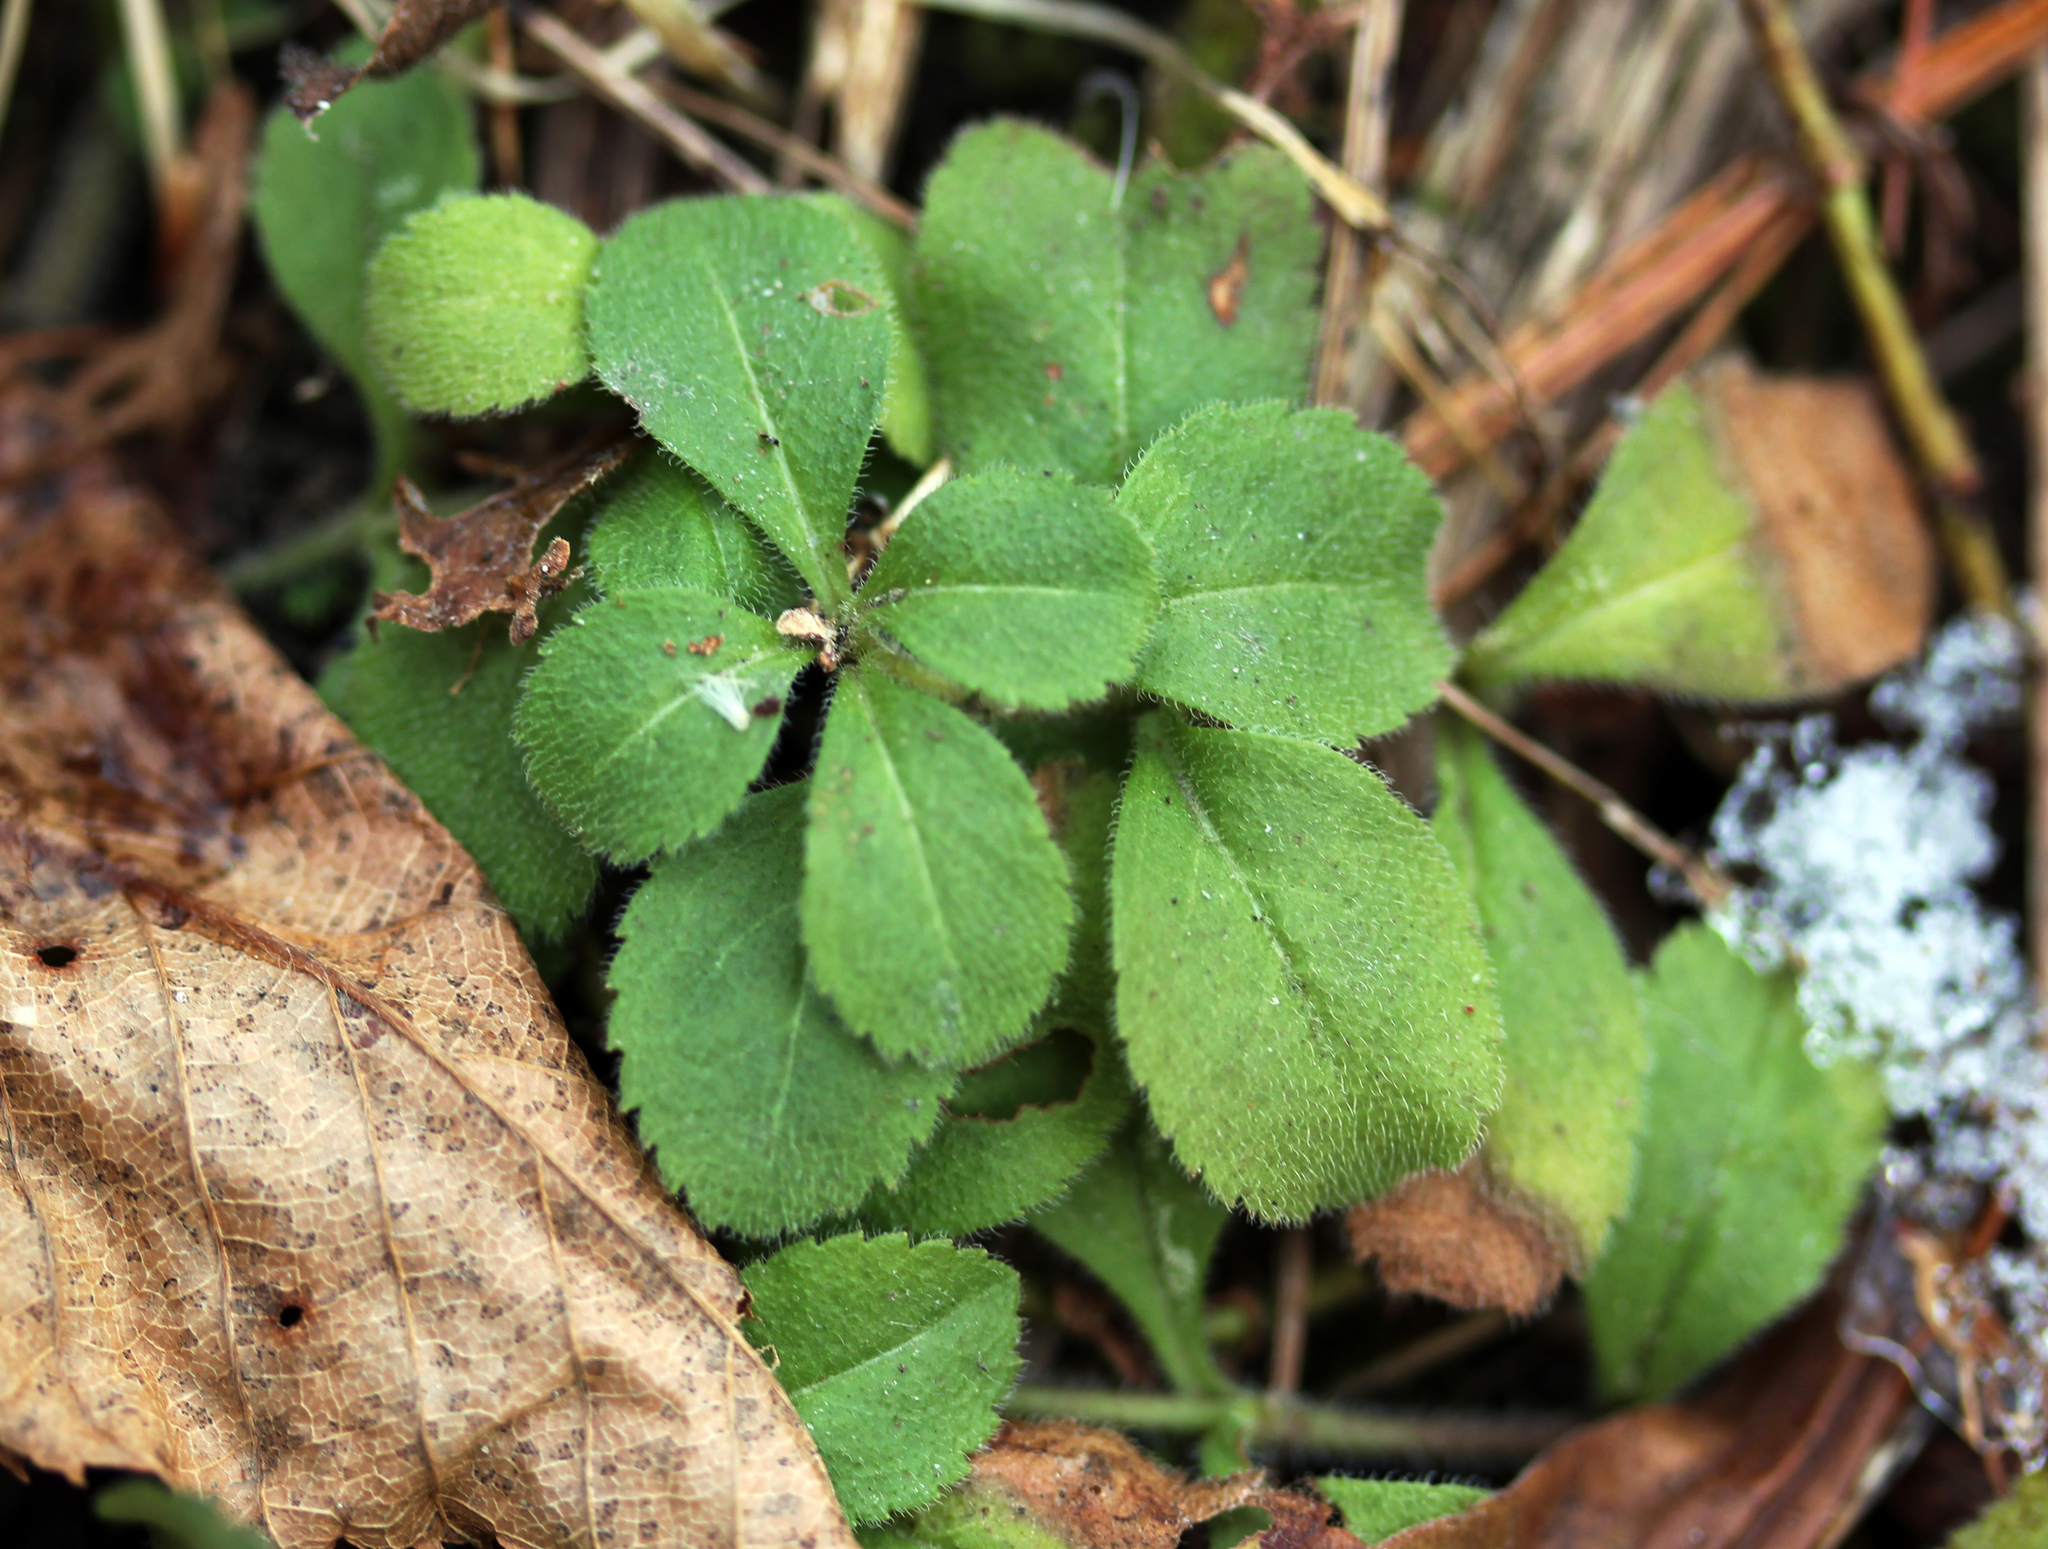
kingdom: Plantae
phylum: Tracheophyta
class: Magnoliopsida
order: Lamiales
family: Plantaginaceae
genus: Veronica
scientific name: Veronica officinalis
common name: Common speedwell
